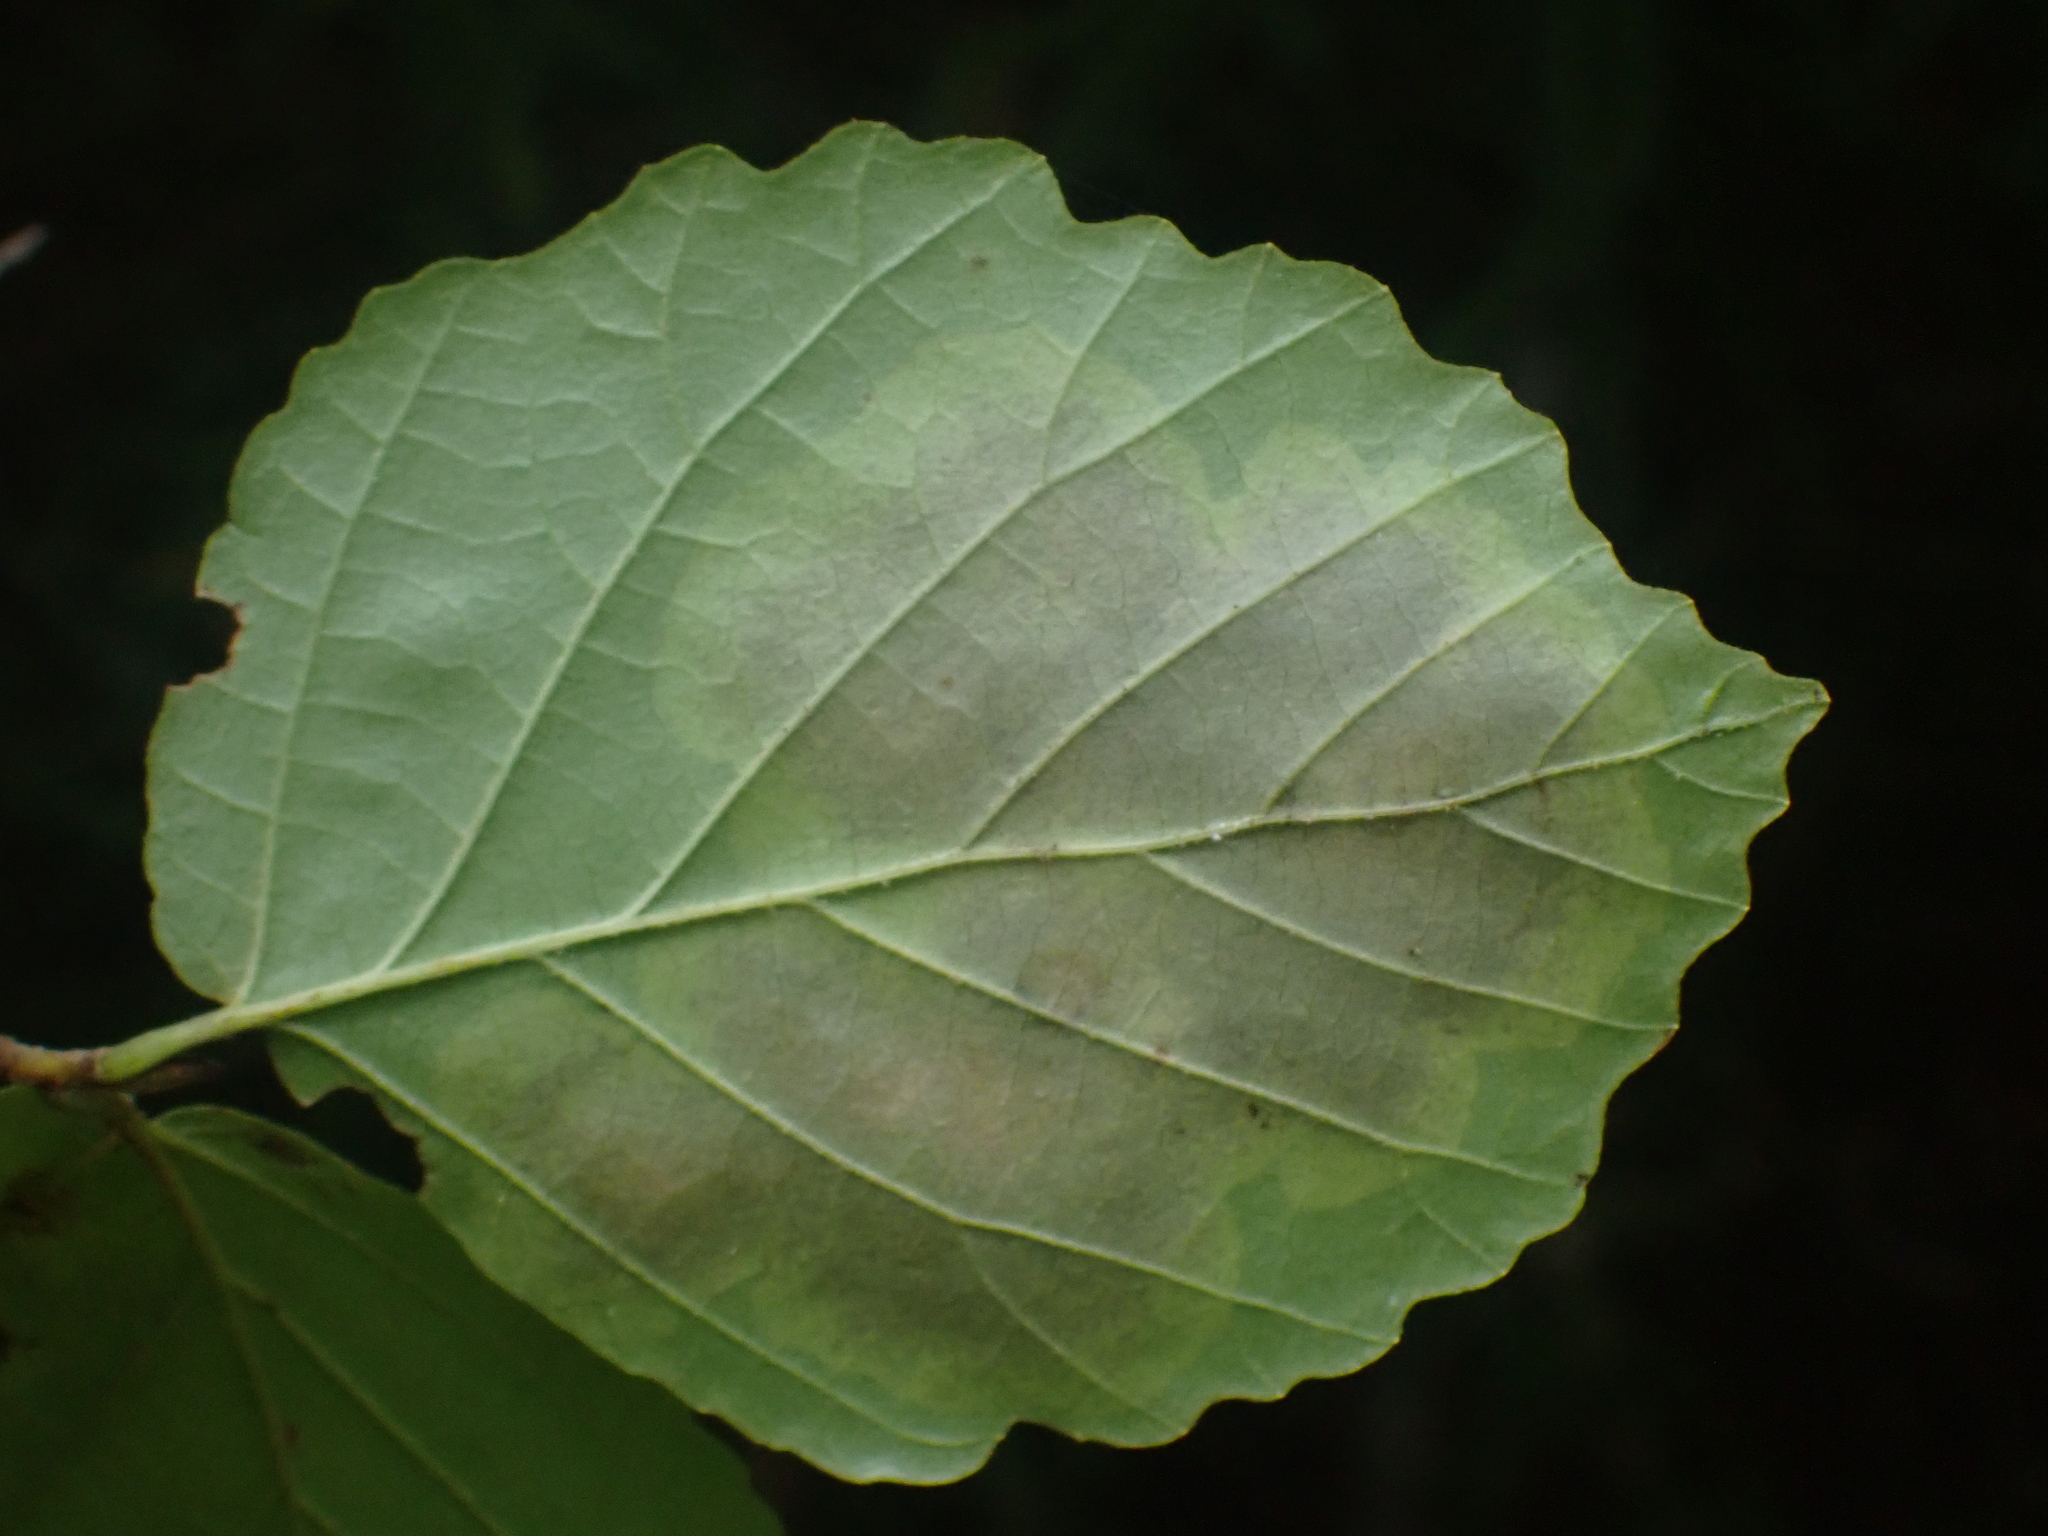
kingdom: Animalia
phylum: Arthropoda
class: Insecta
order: Lepidoptera
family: Gracillariidae
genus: Cameraria
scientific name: Cameraria hamameliella
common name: Witchhazel leafminer
